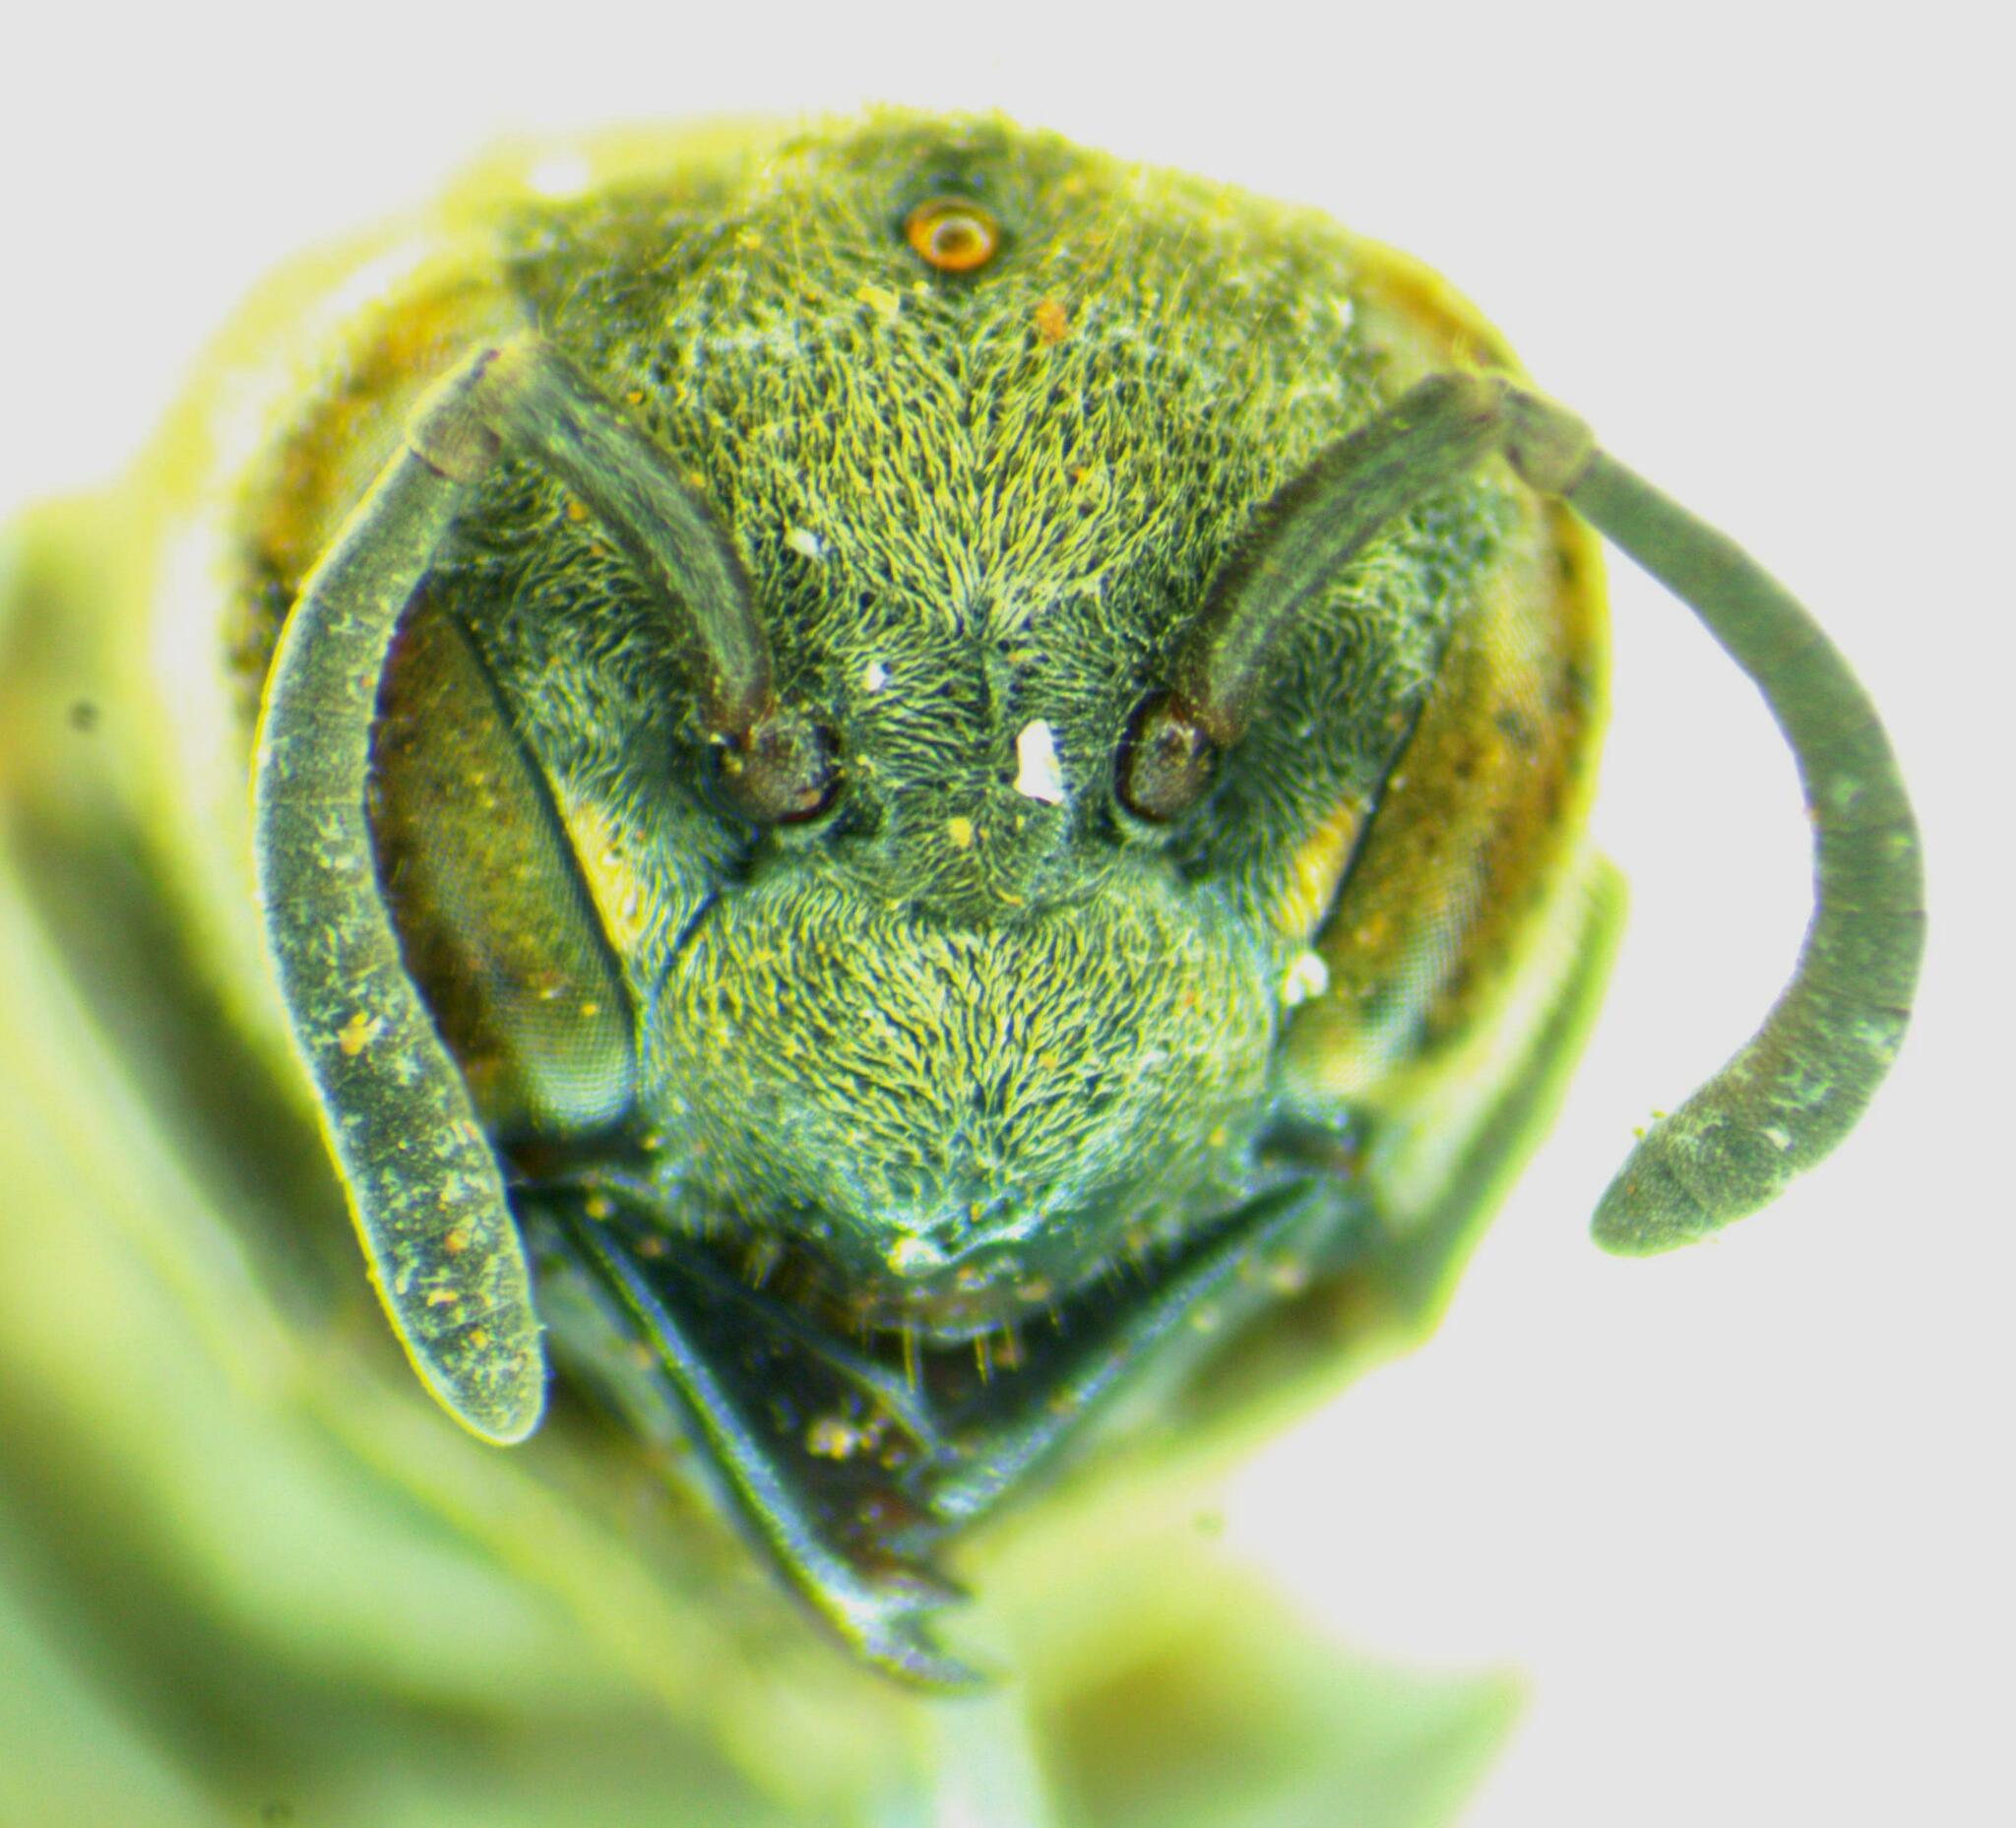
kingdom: Animalia
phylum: Arthropoda
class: Insecta
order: Hymenoptera
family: Vespidae
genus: Brachygastra
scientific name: Brachygastra lecheguana
